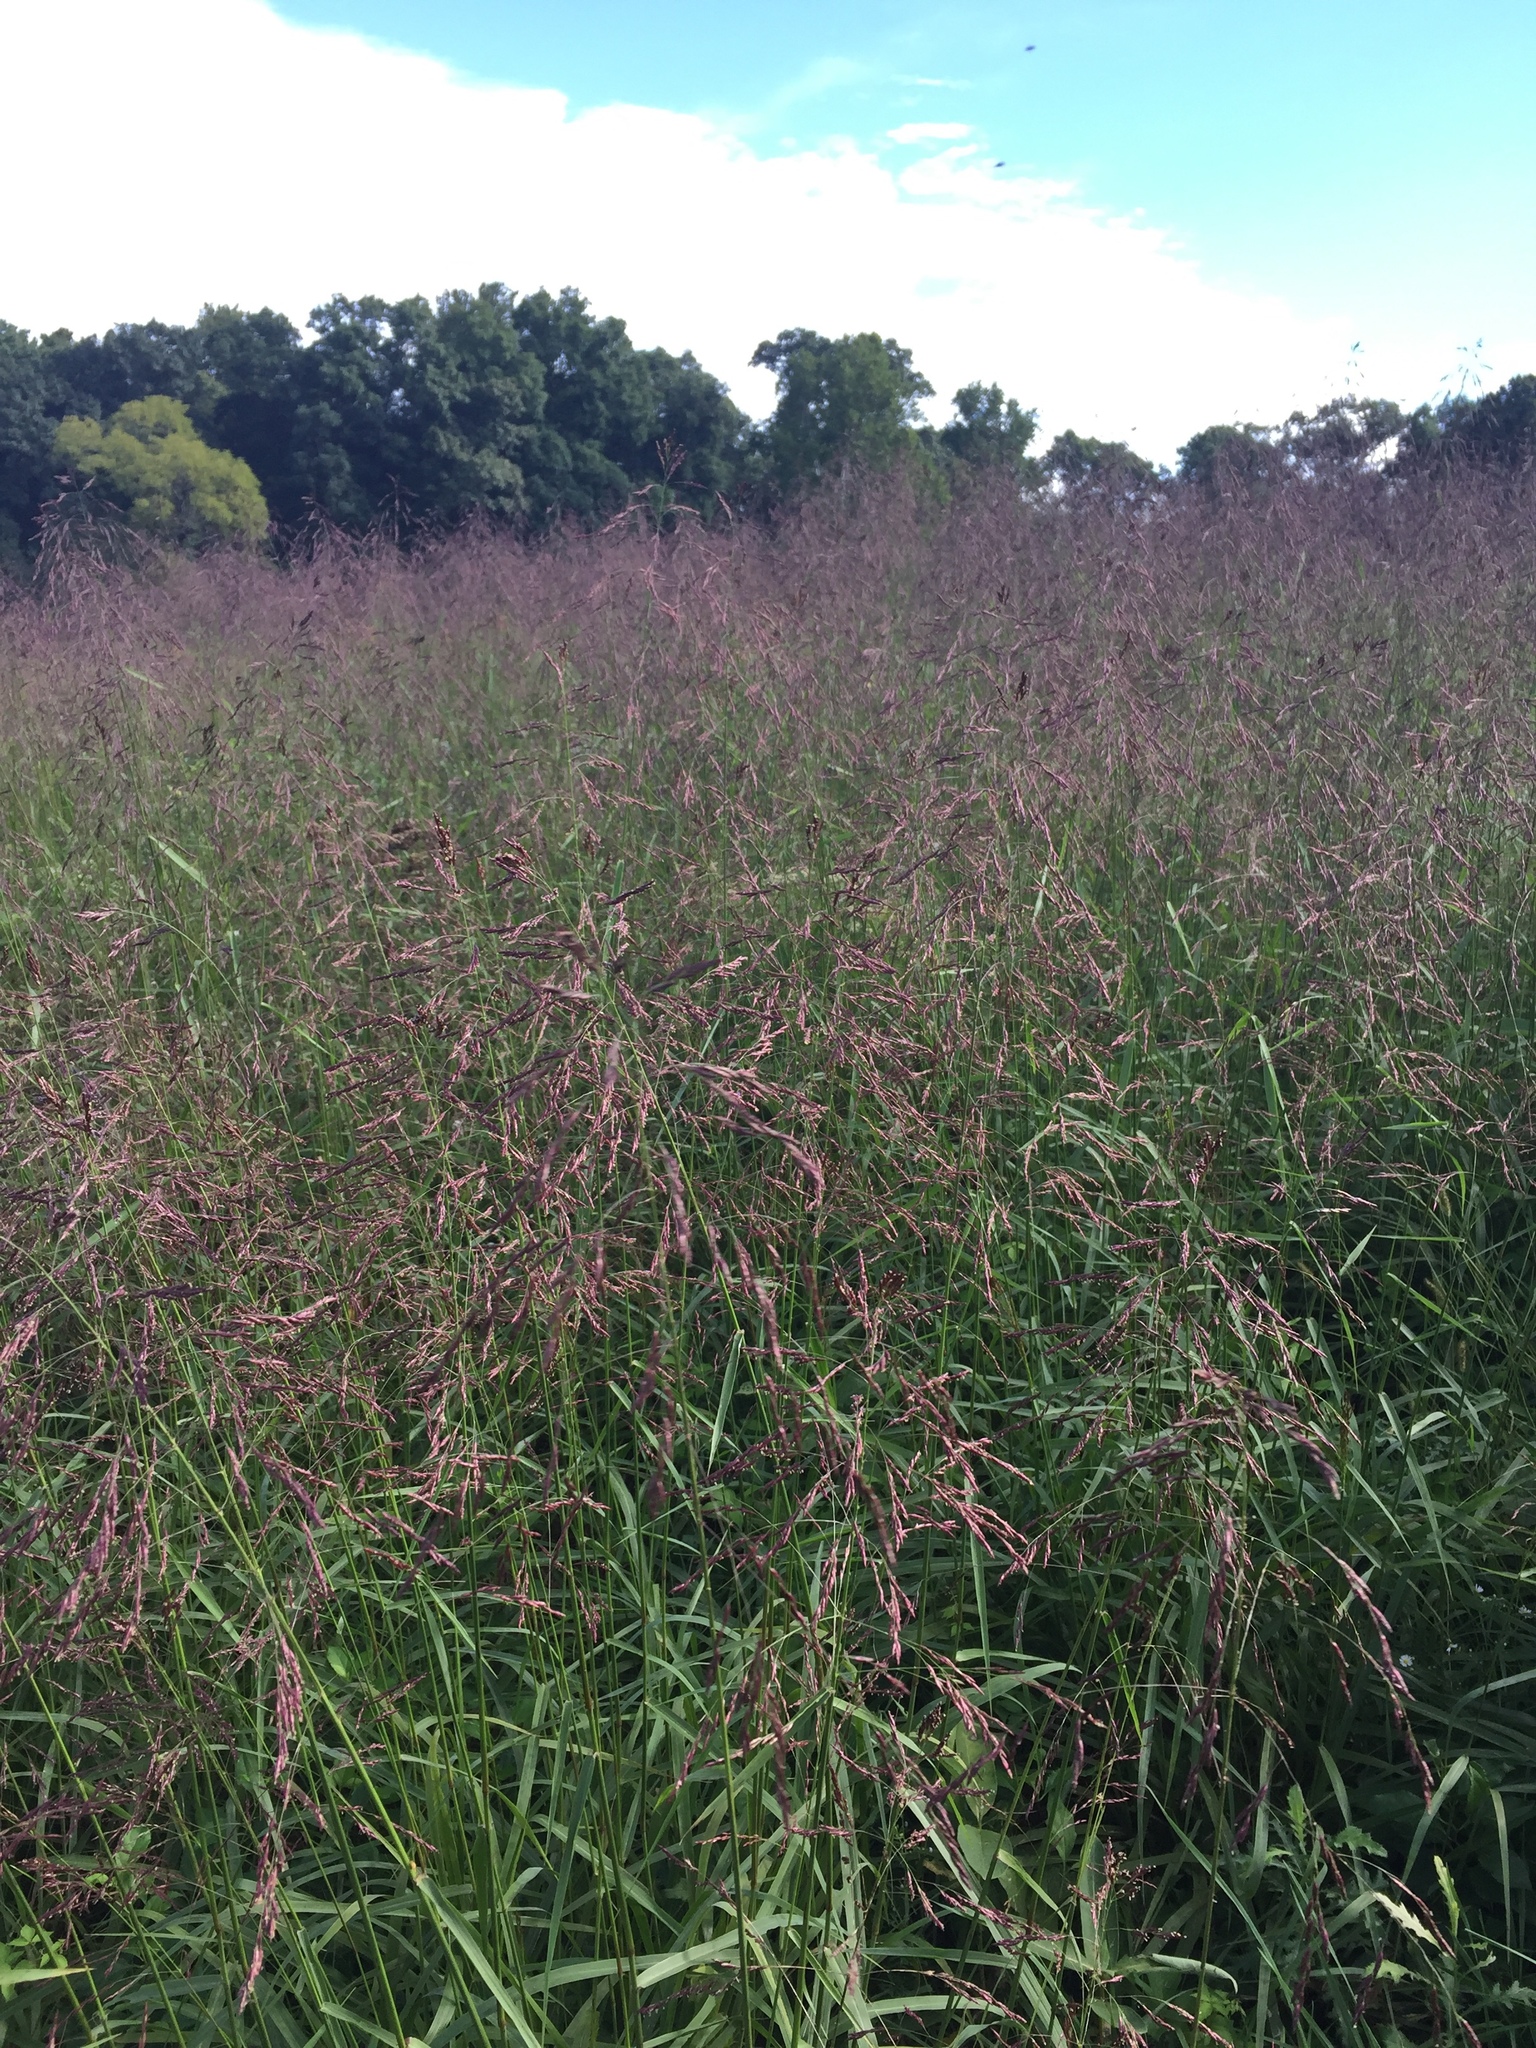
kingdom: Plantae
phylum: Tracheophyta
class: Liliopsida
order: Poales
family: Poaceae
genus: Tridens
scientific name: Tridens flavus
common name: Purpletop
